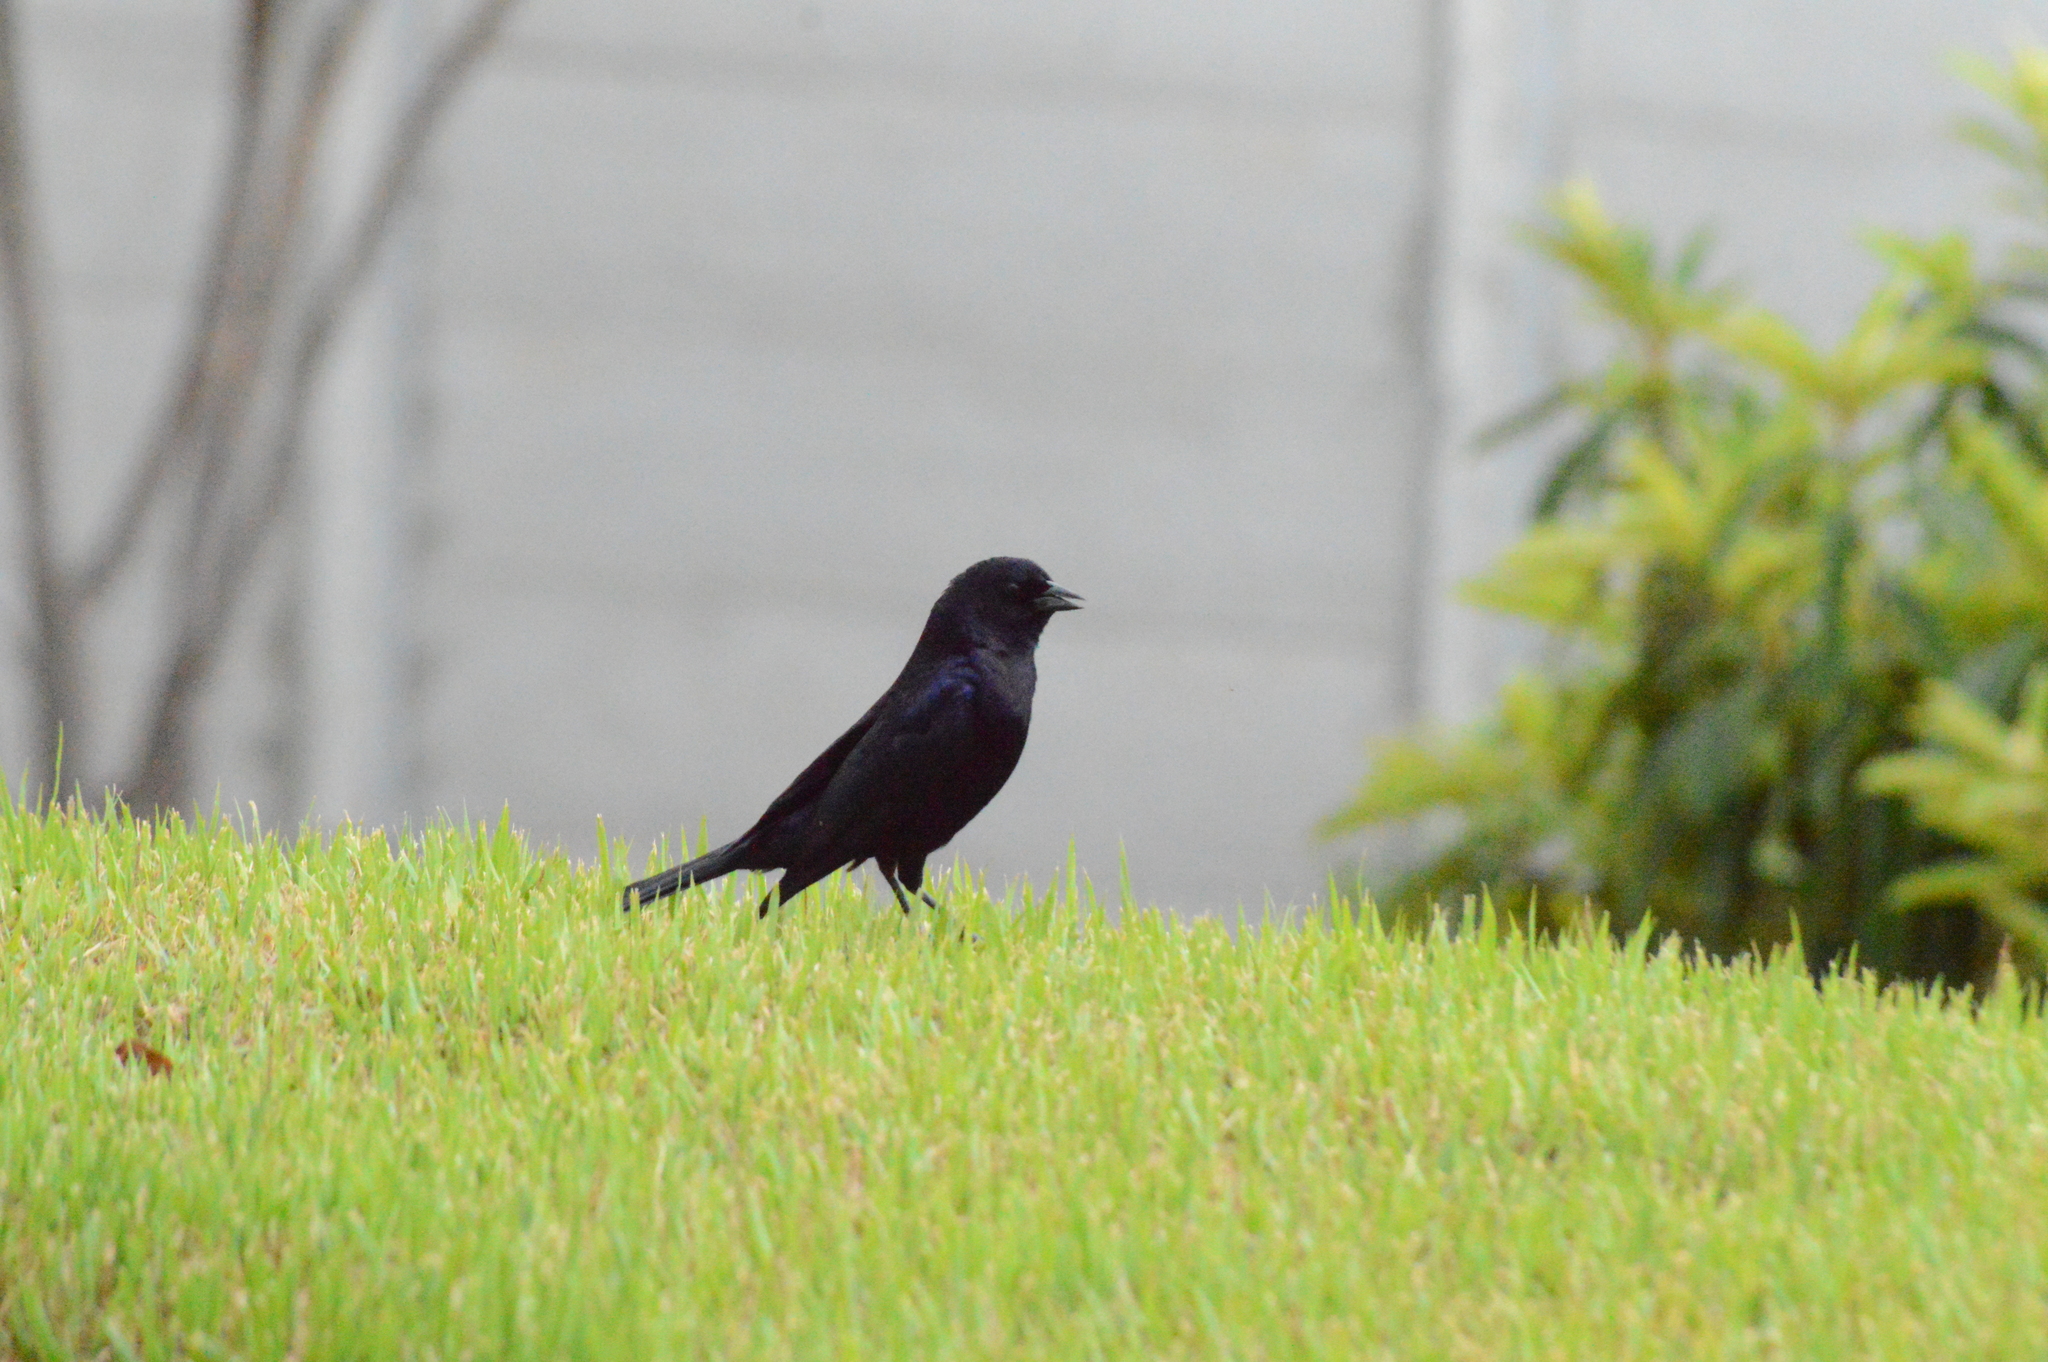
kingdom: Animalia
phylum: Chordata
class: Aves
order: Passeriformes
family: Icteridae
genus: Molothrus
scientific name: Molothrus bonariensis
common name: Shiny cowbird
